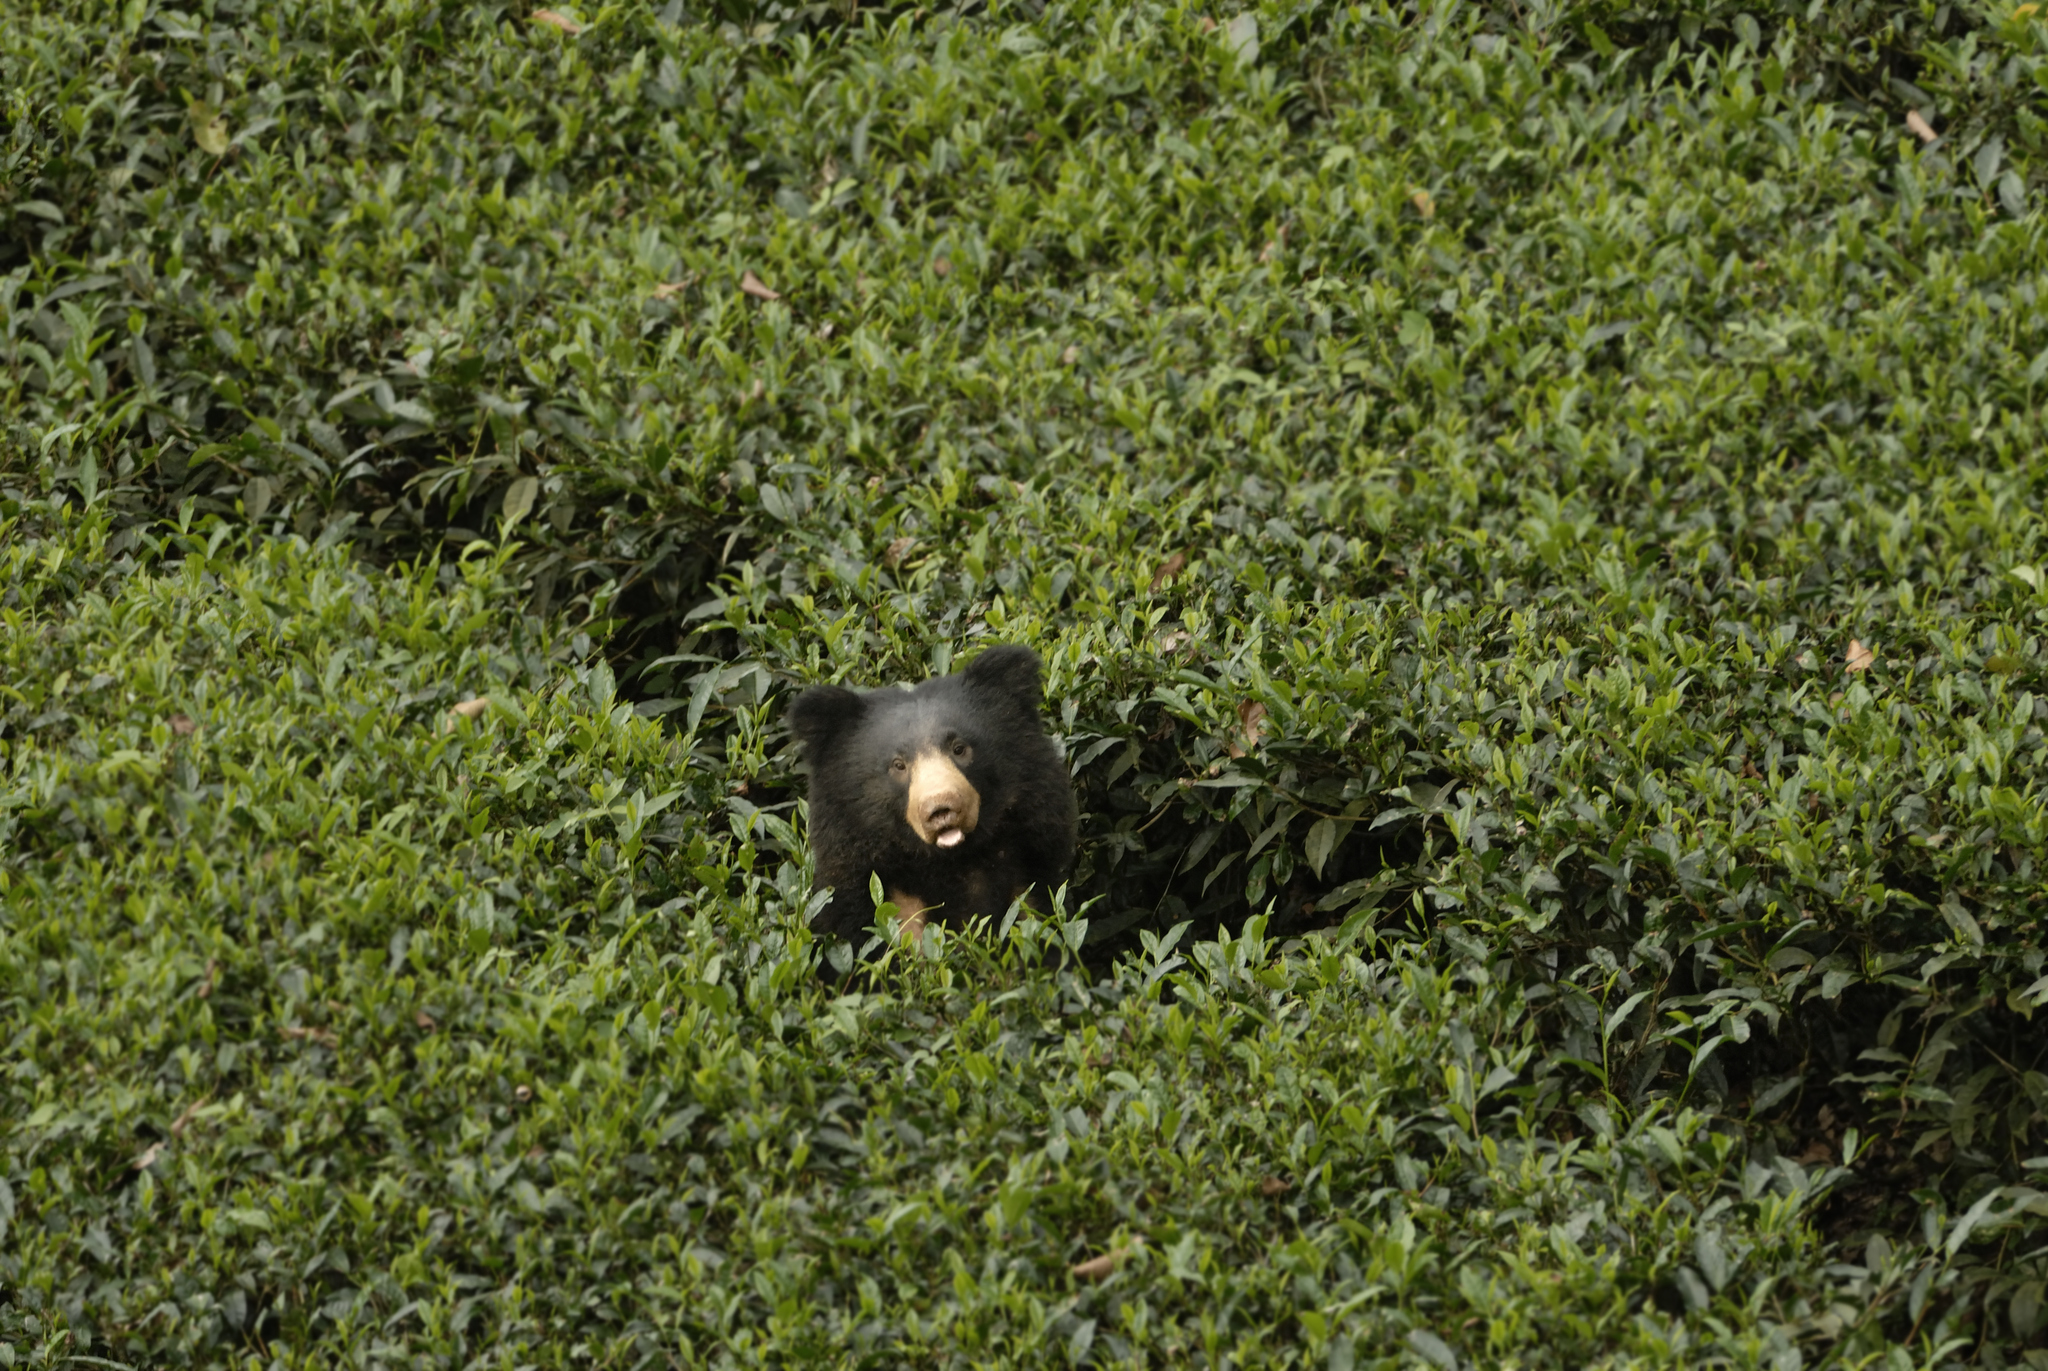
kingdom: Animalia
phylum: Chordata
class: Mammalia
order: Carnivora
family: Ursidae
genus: Melursus
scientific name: Melursus ursinus
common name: Sloth bear
